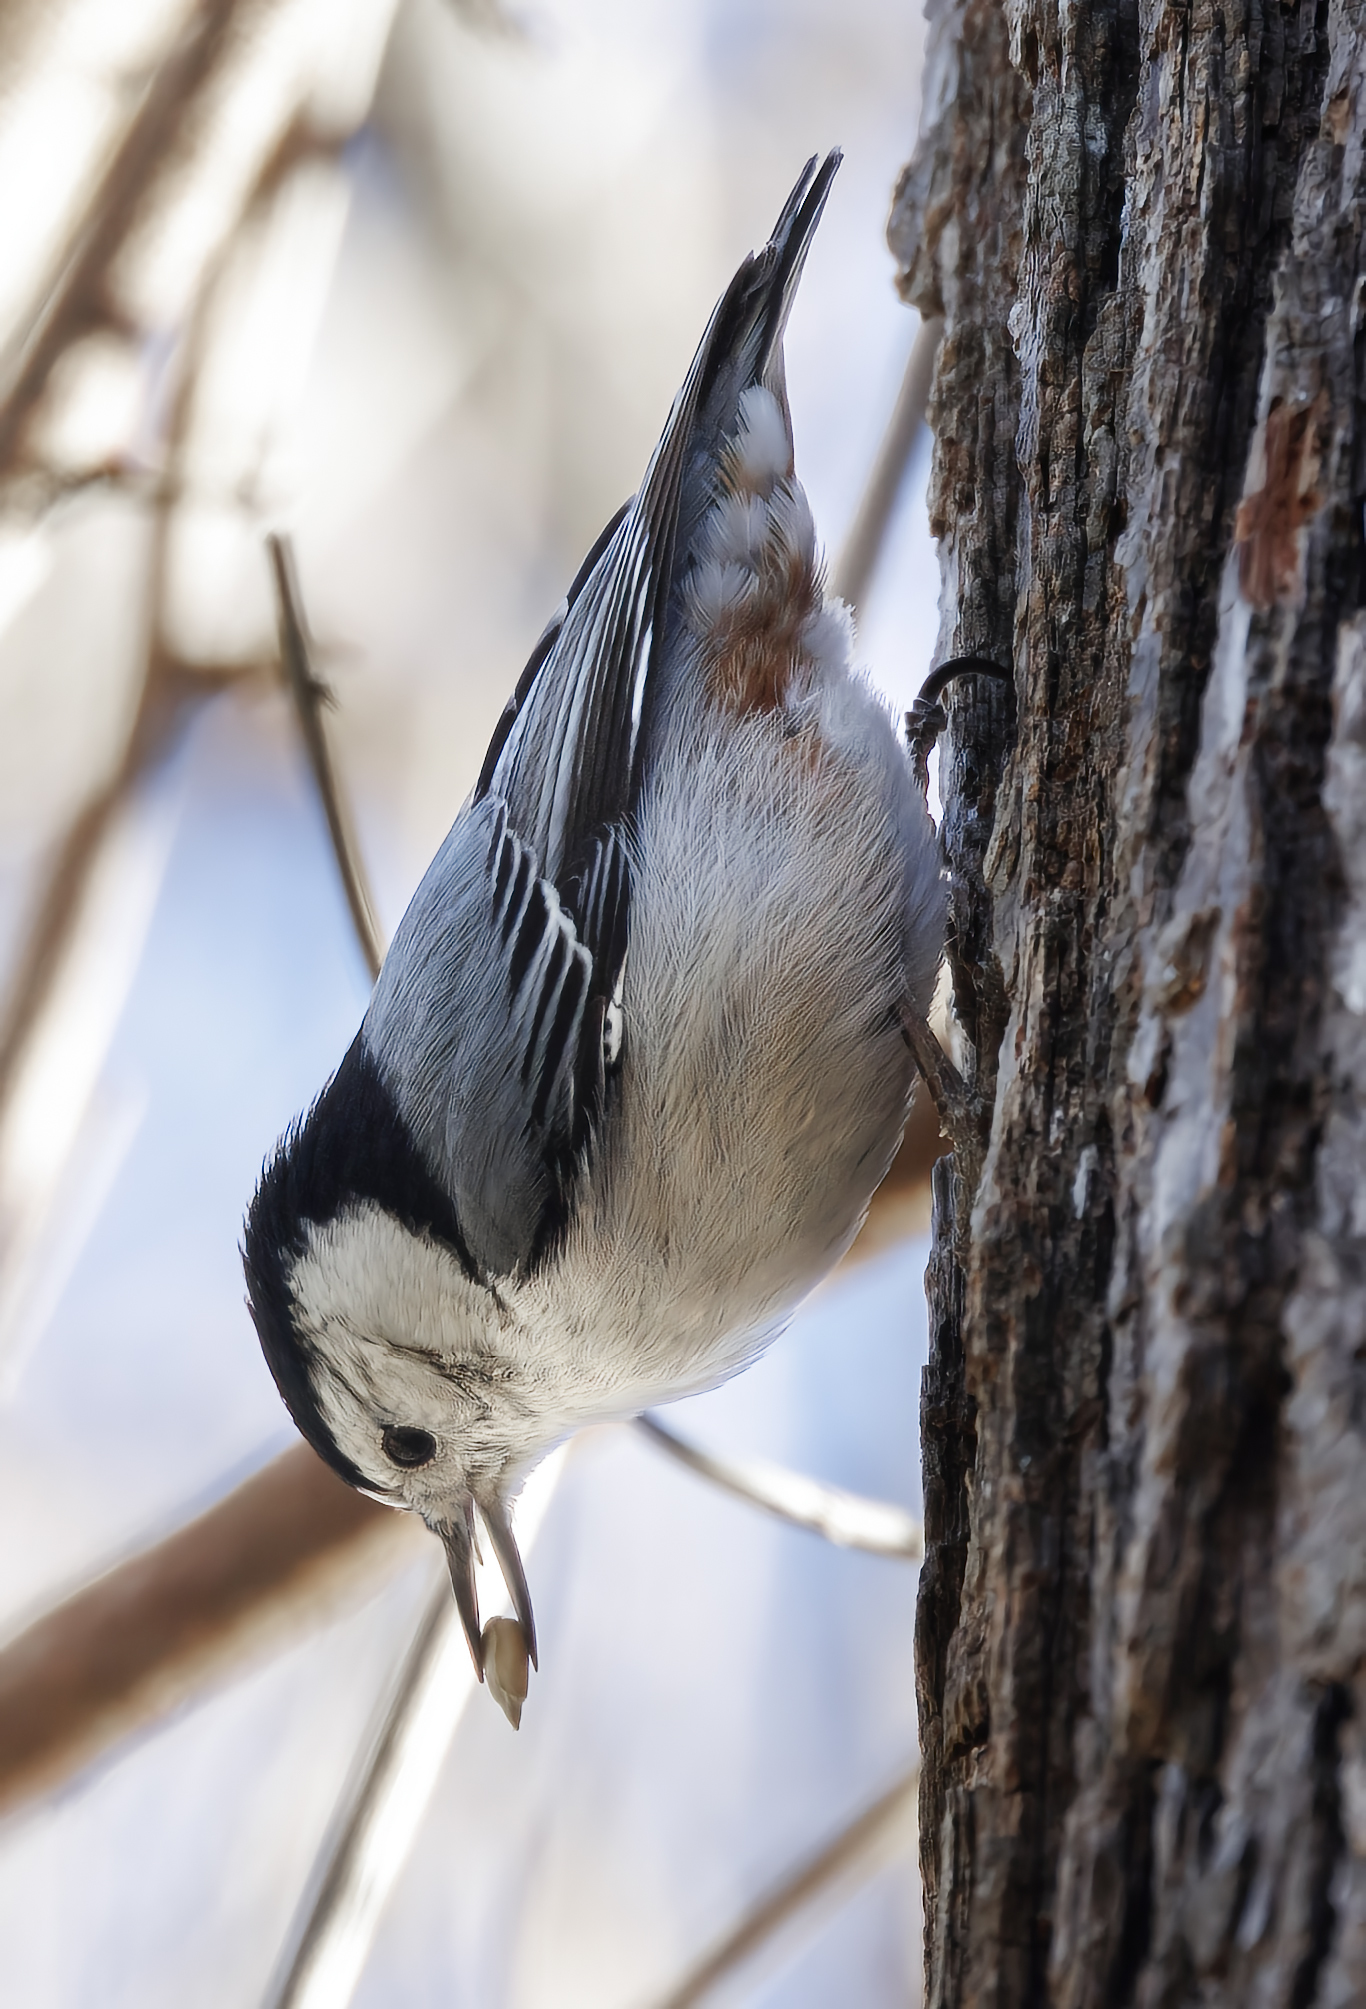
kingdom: Animalia
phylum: Chordata
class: Aves
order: Passeriformes
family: Sittidae
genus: Sitta
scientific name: Sitta carolinensis
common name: White-breasted nuthatch
